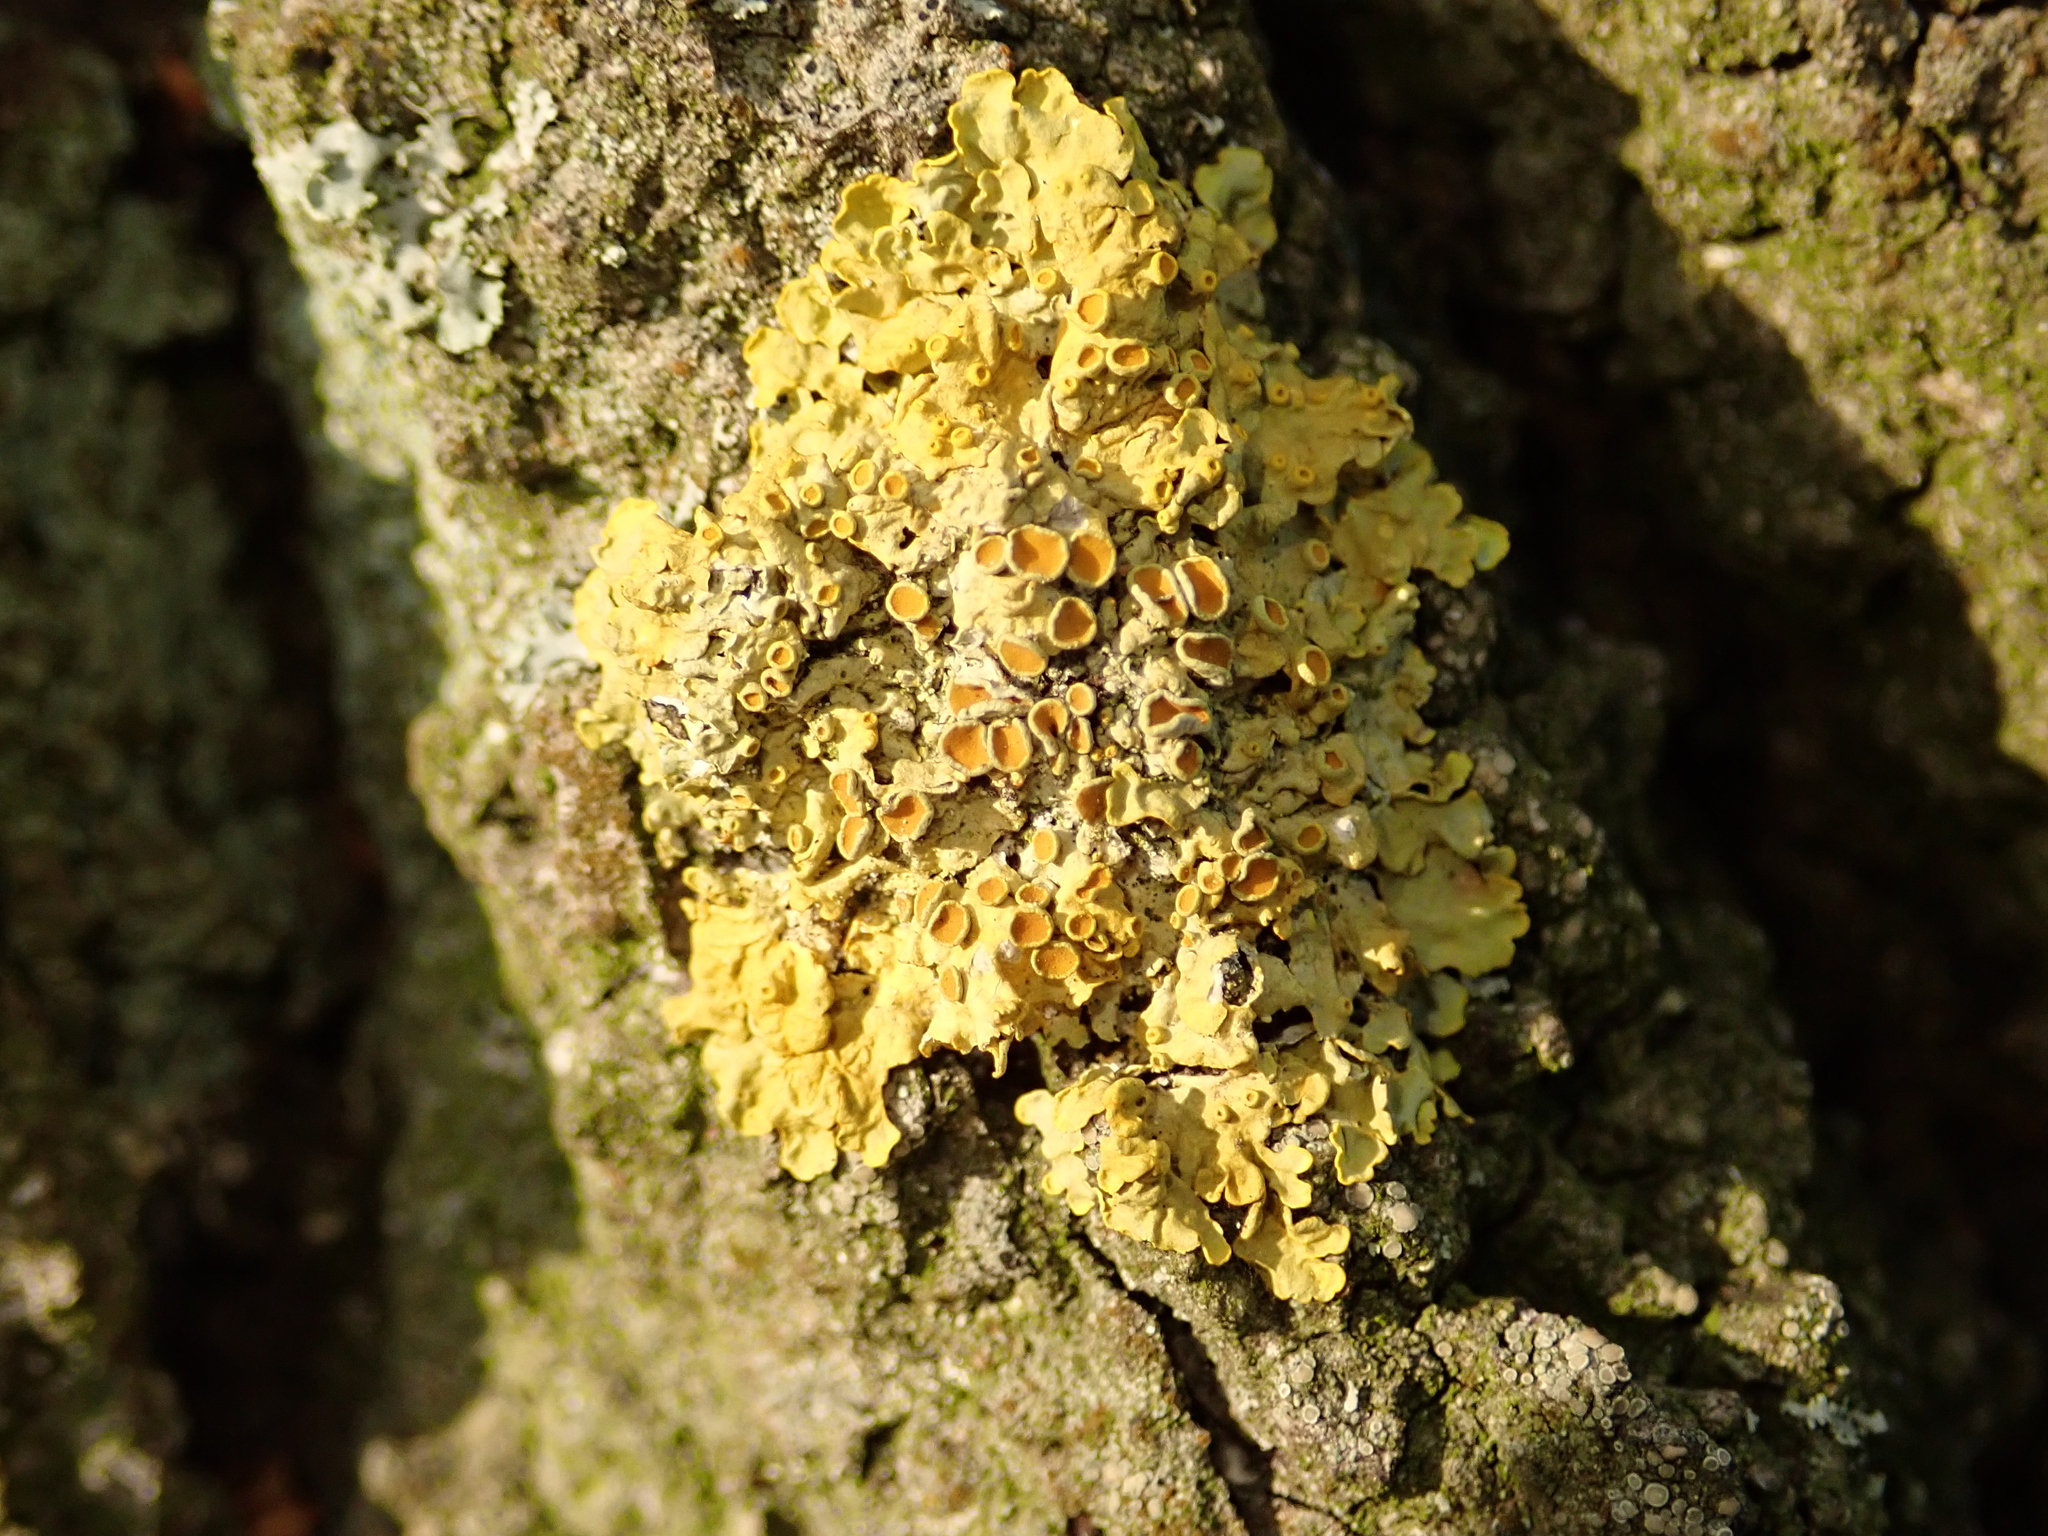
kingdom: Fungi
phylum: Ascomycota
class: Lecanoromycetes
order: Teloschistales
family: Teloschistaceae
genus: Xanthoria
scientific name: Xanthoria parietina
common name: Common orange lichen
